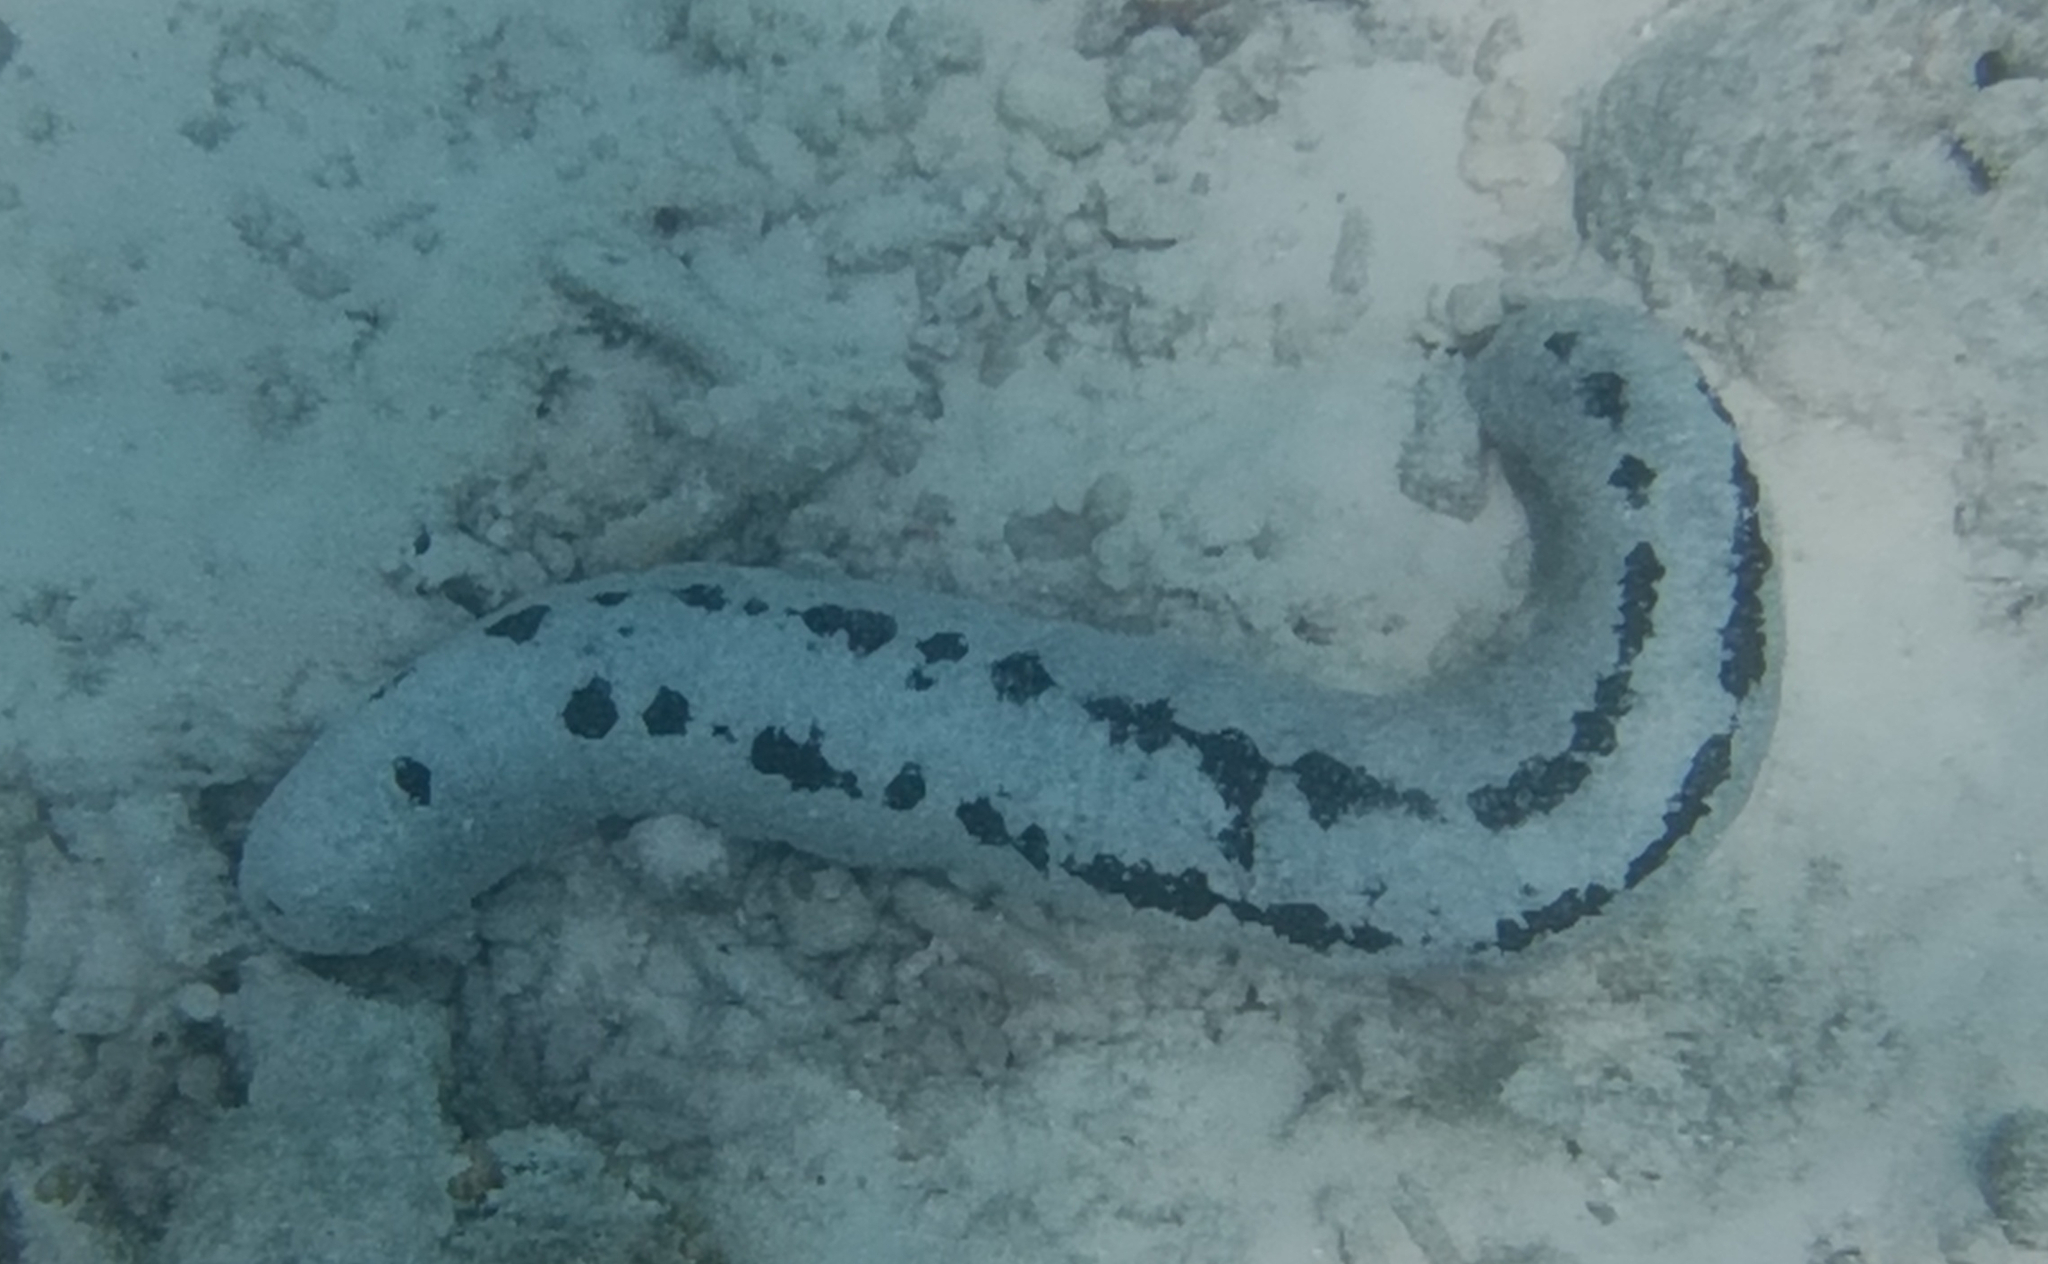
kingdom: Animalia
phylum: Echinodermata
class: Holothuroidea
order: Holothuriida
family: Holothuriidae
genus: Holothuria
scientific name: Holothuria atra
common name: Lollyfish
